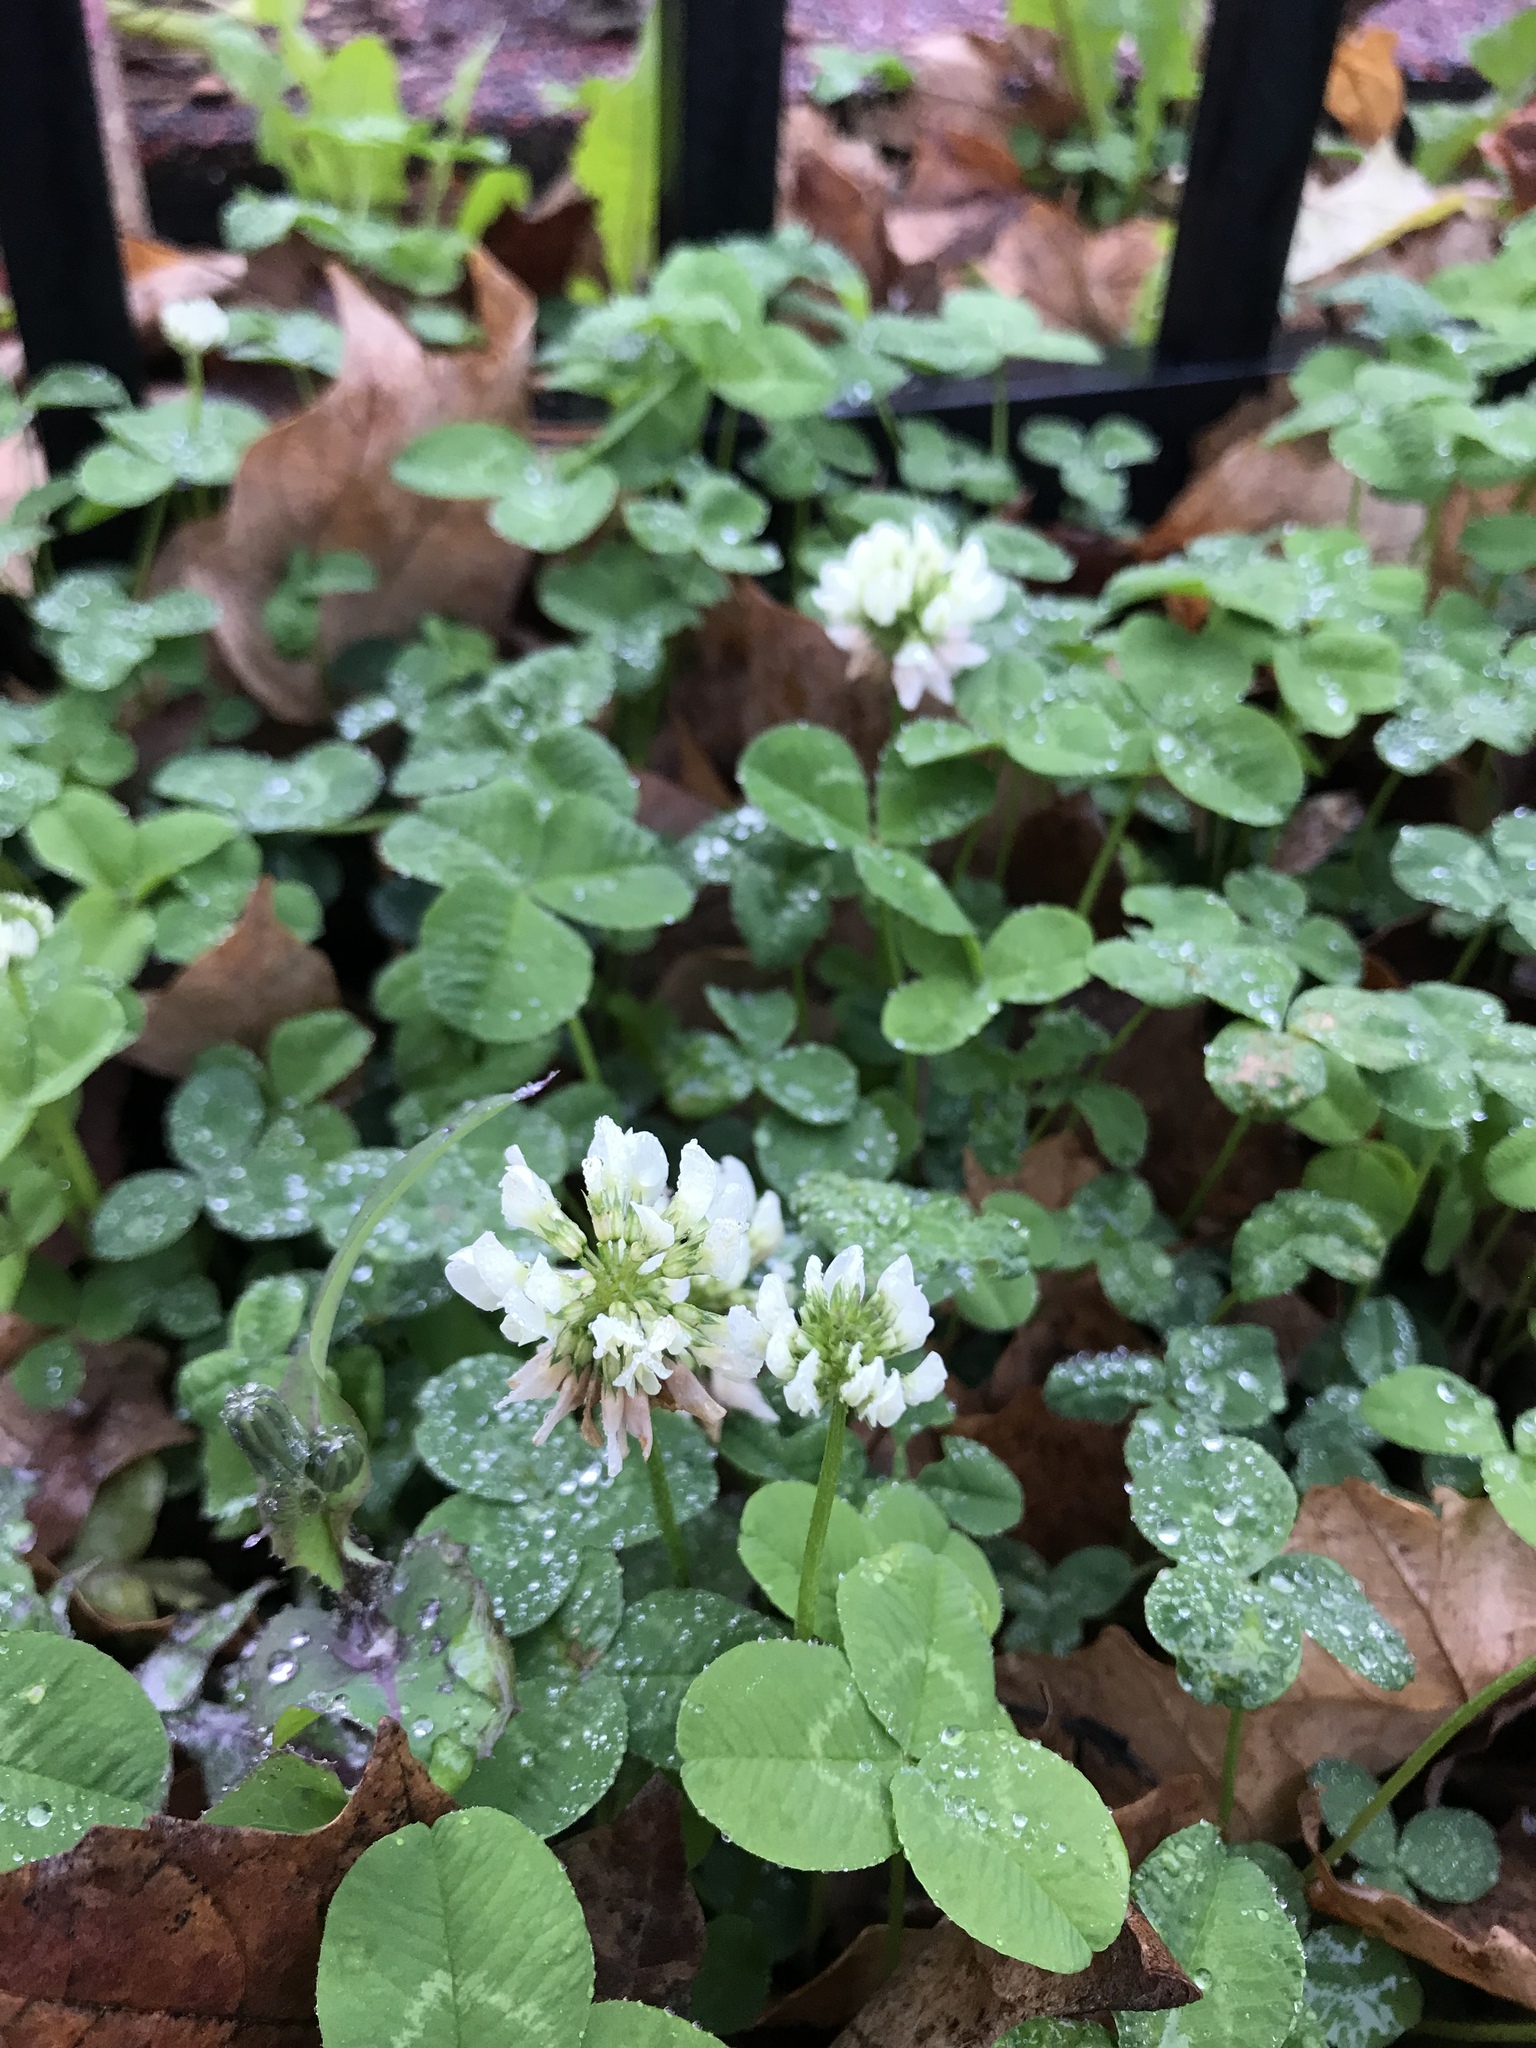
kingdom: Plantae
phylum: Tracheophyta
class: Magnoliopsida
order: Fabales
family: Fabaceae
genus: Trifolium
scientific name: Trifolium repens
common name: White clover
